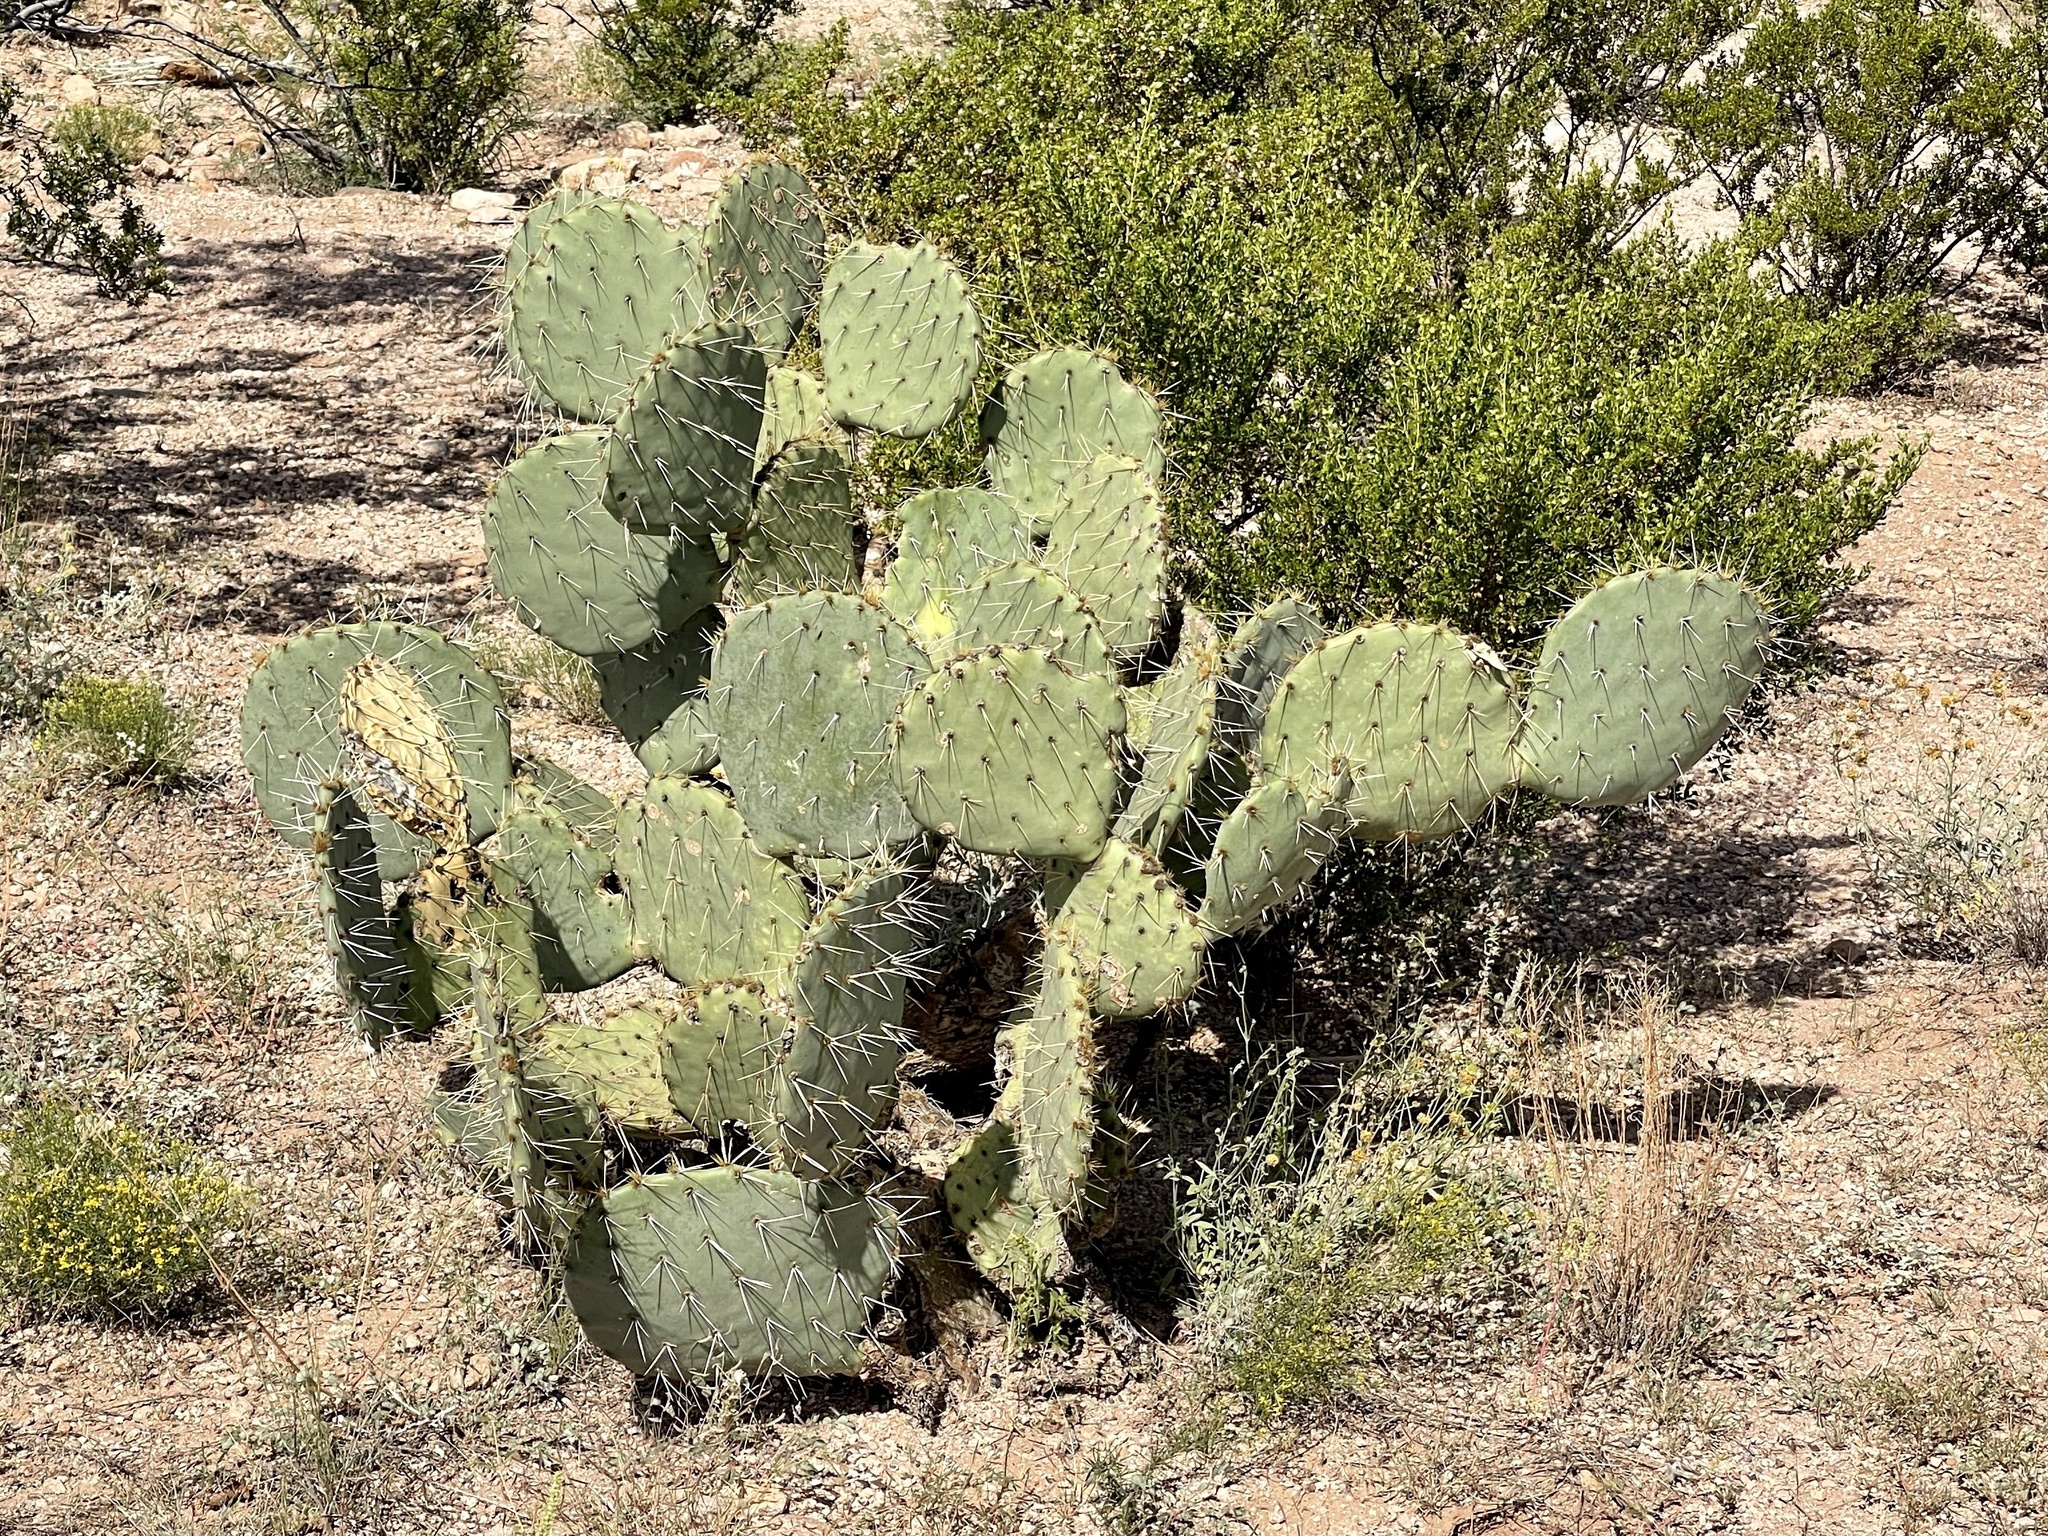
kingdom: Plantae
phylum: Tracheophyta
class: Magnoliopsida
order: Caryophyllales
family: Cactaceae
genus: Opuntia
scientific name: Opuntia engelmannii
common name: Cactus-apple
